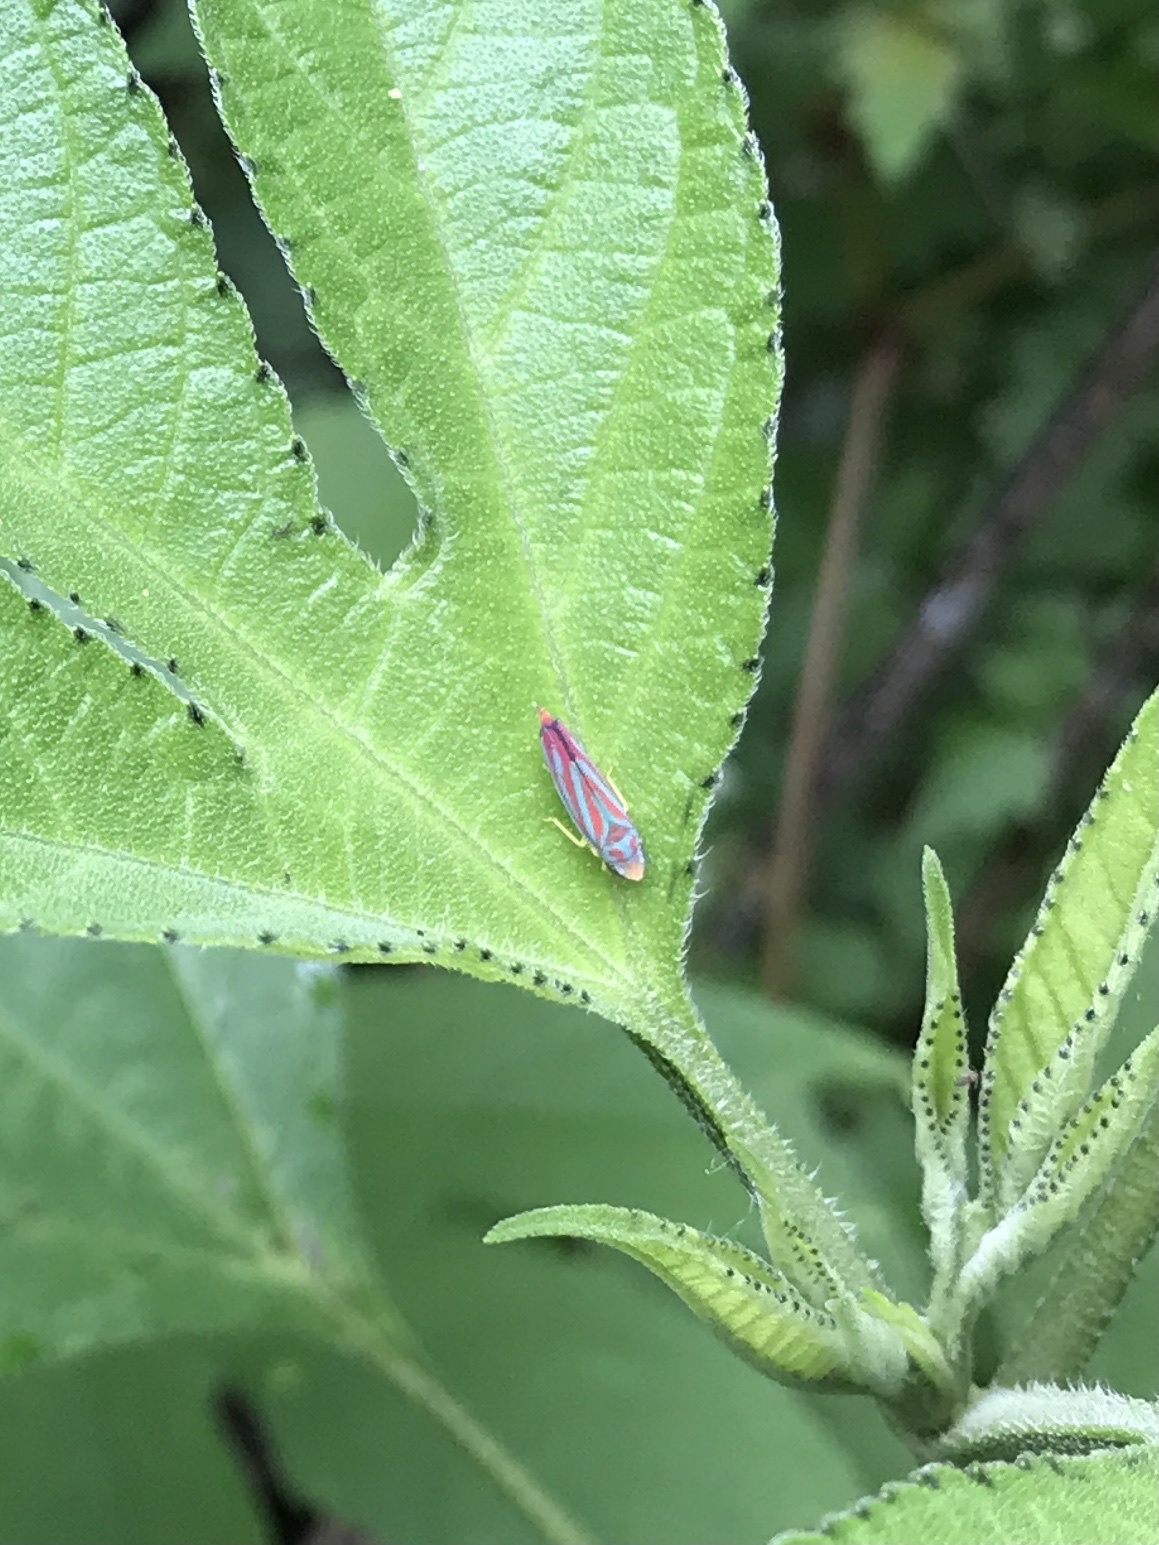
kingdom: Animalia
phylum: Arthropoda
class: Insecta
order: Hemiptera
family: Cicadellidae
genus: Graphocephala
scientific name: Graphocephala coccinea
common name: Candy-striped leafhopper
